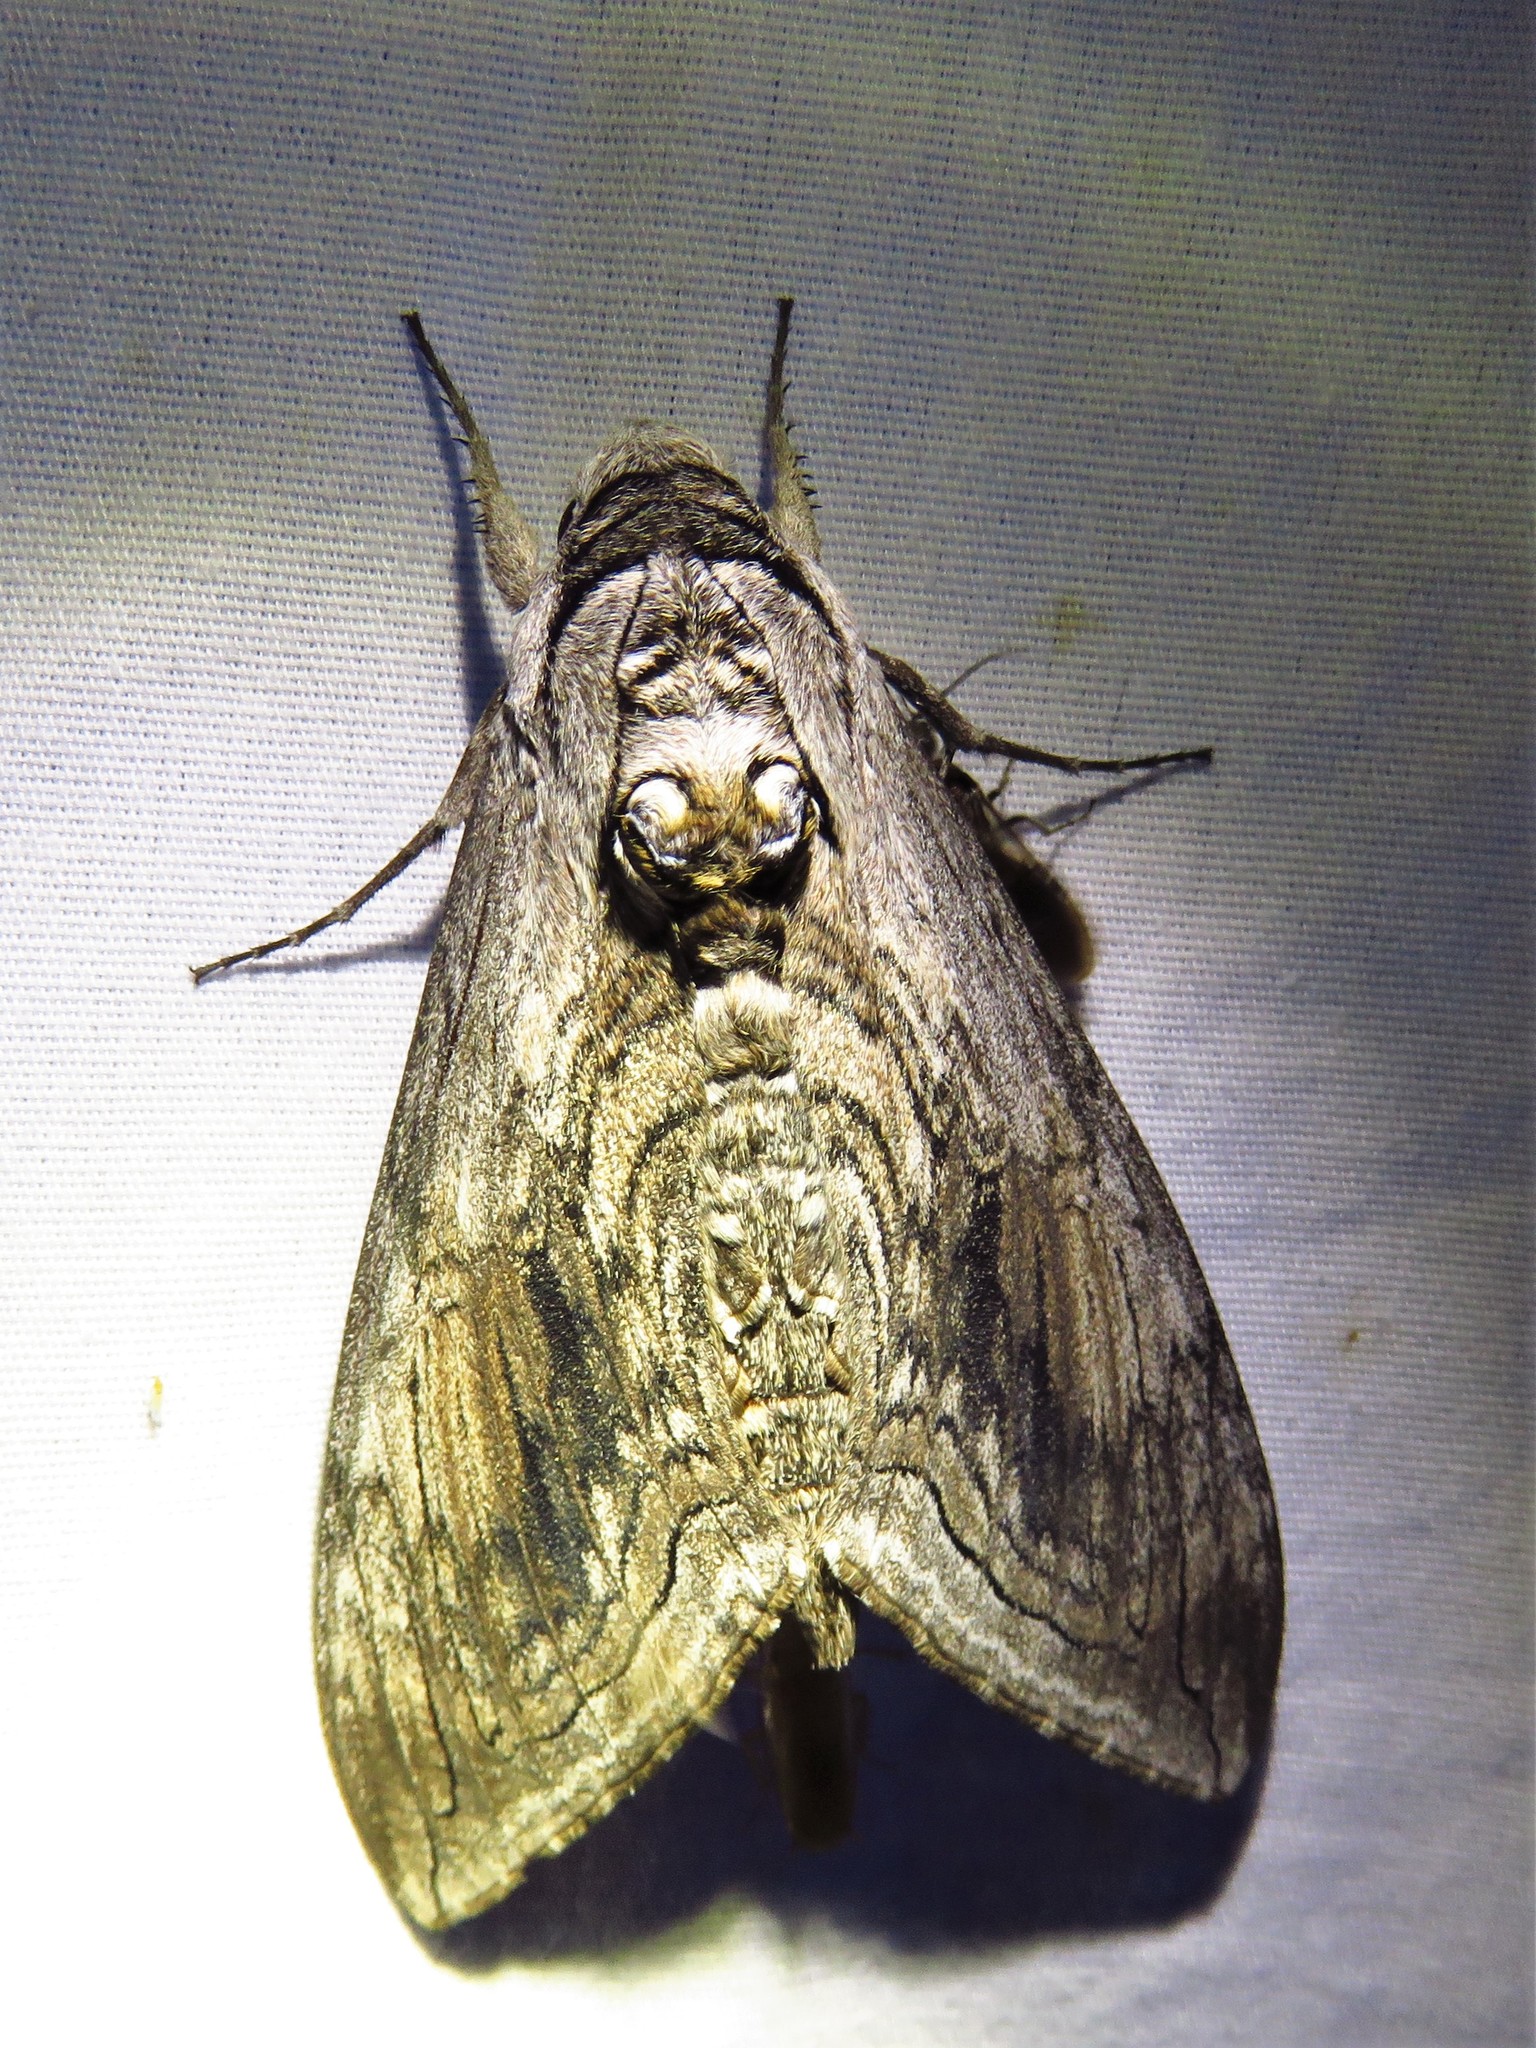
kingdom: Animalia
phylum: Arthropoda
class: Insecta
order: Lepidoptera
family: Sphingidae
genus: Manduca
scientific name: Manduca quinquemaculatus
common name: Five-spotted hawk-moth
